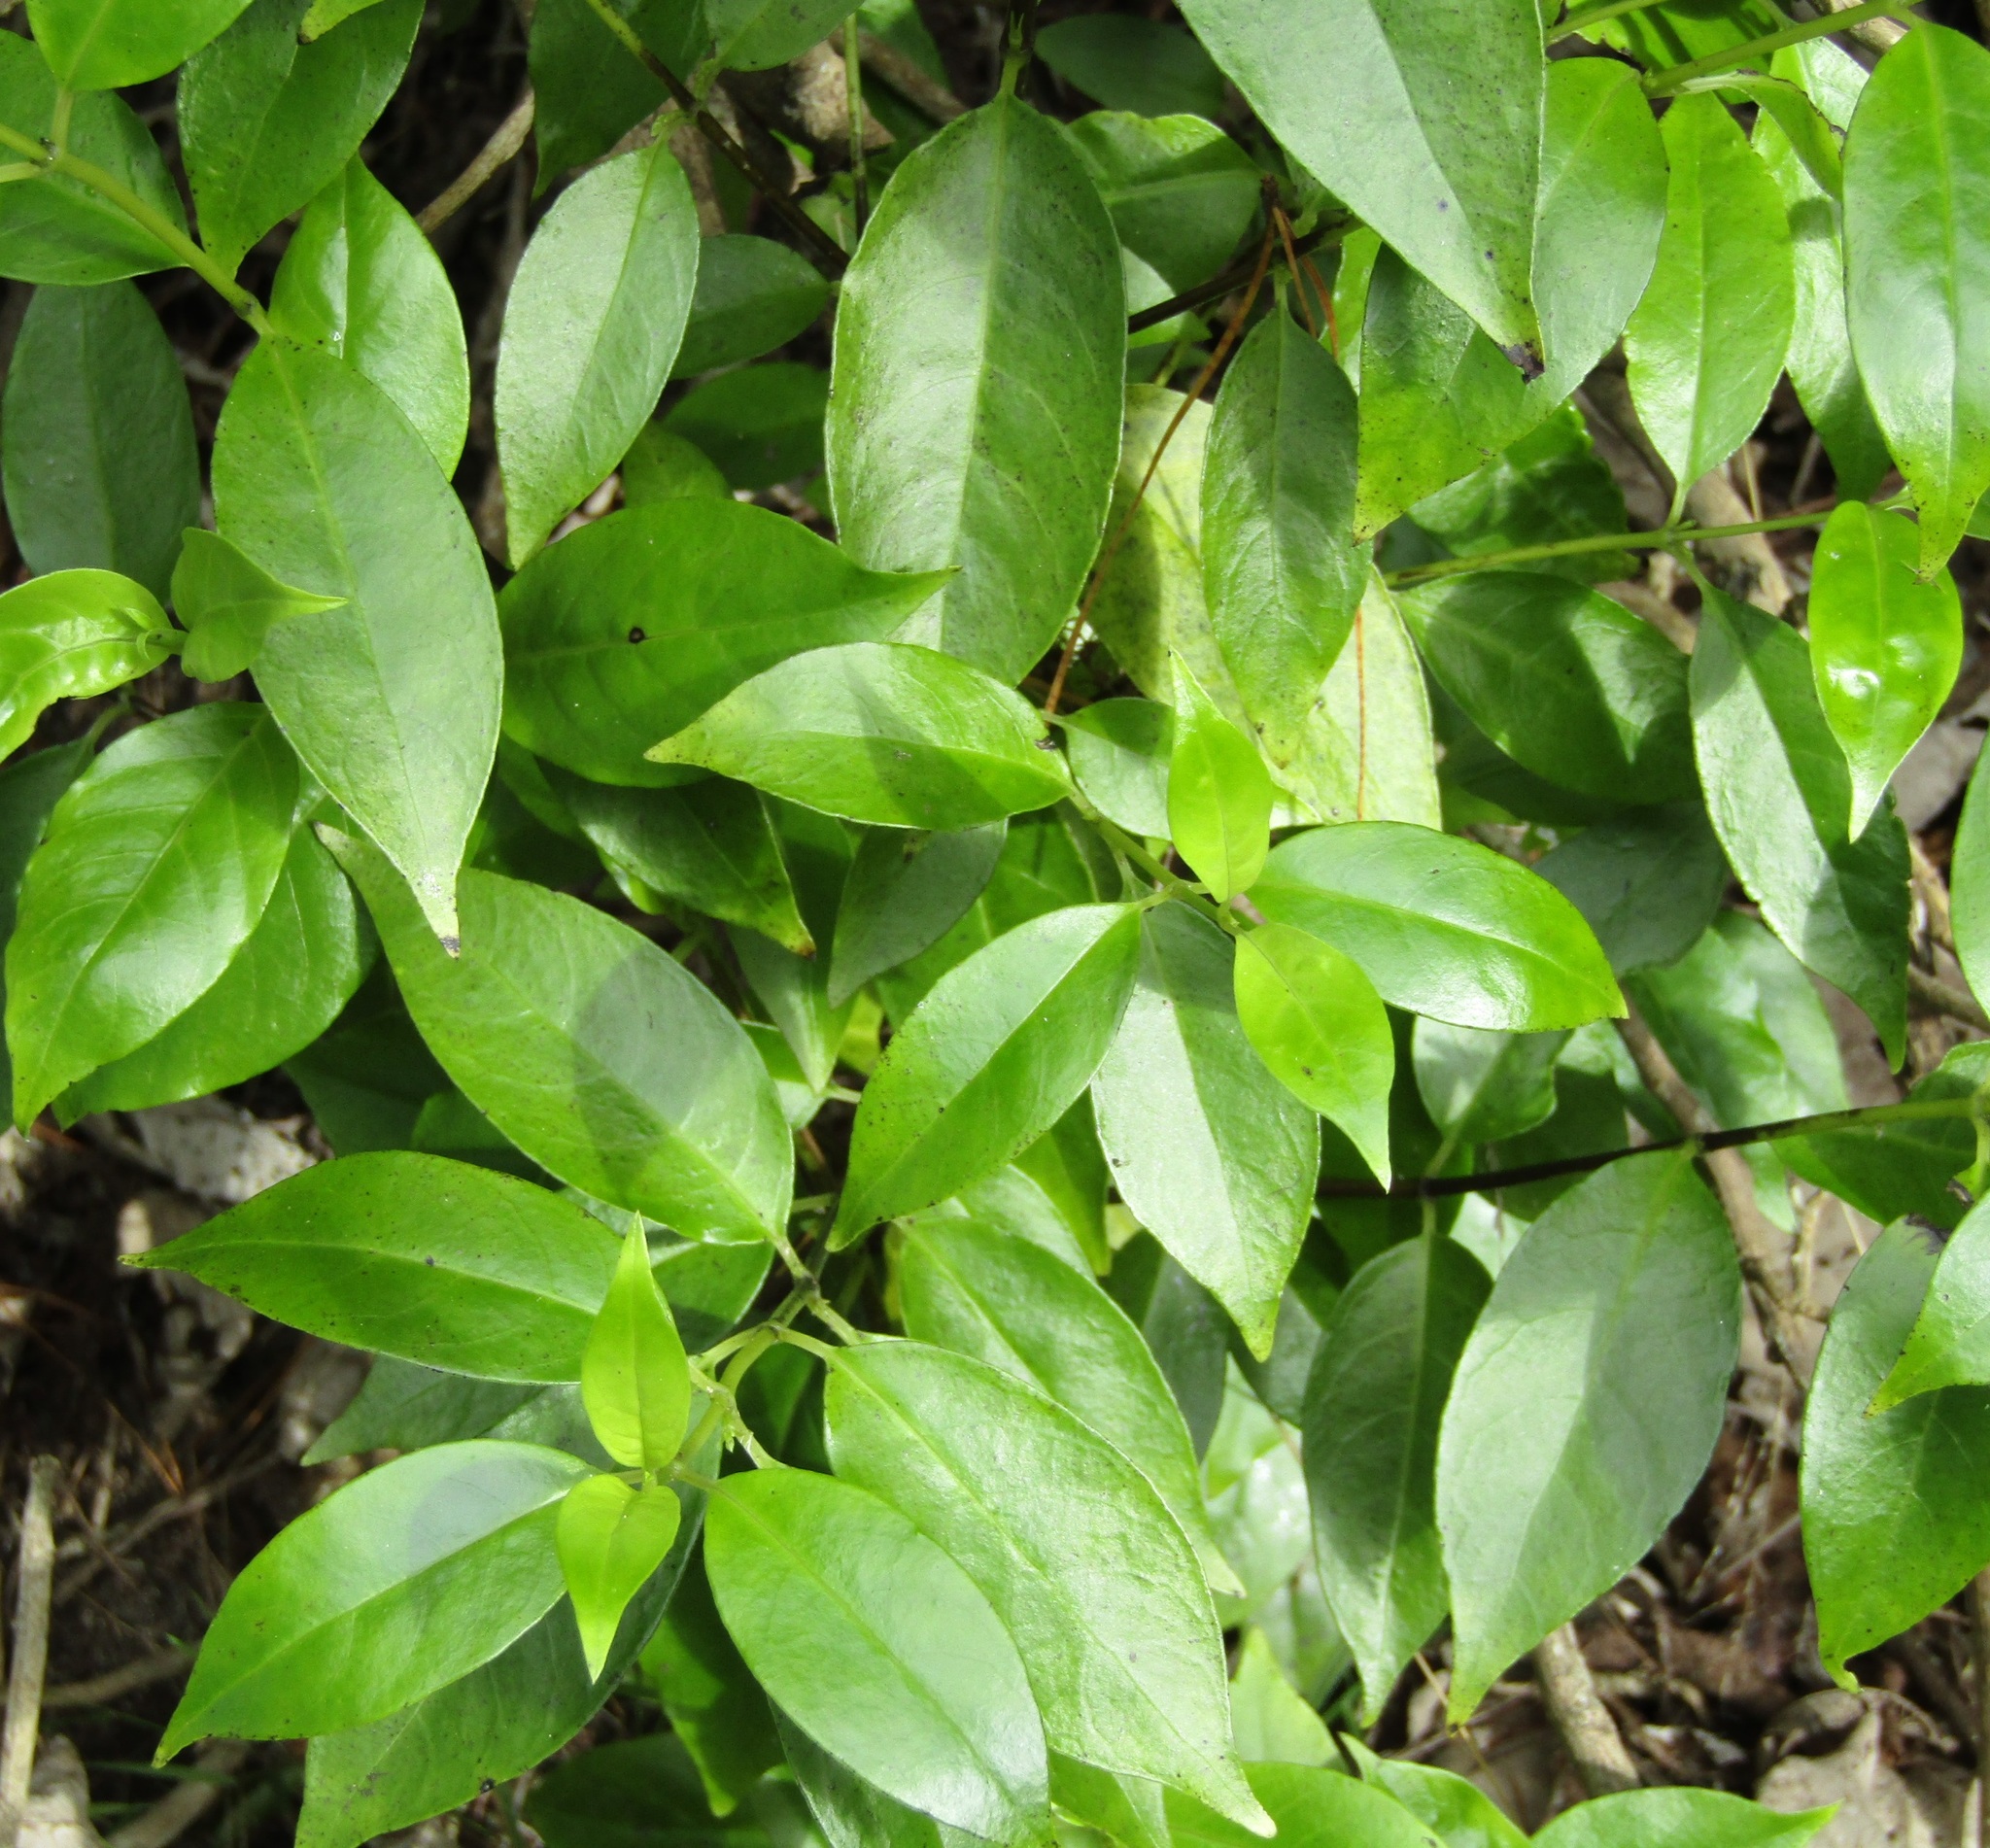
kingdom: Plantae
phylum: Tracheophyta
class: Magnoliopsida
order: Gentianales
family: Loganiaceae
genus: Geniostoma
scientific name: Geniostoma ligustrifolium
